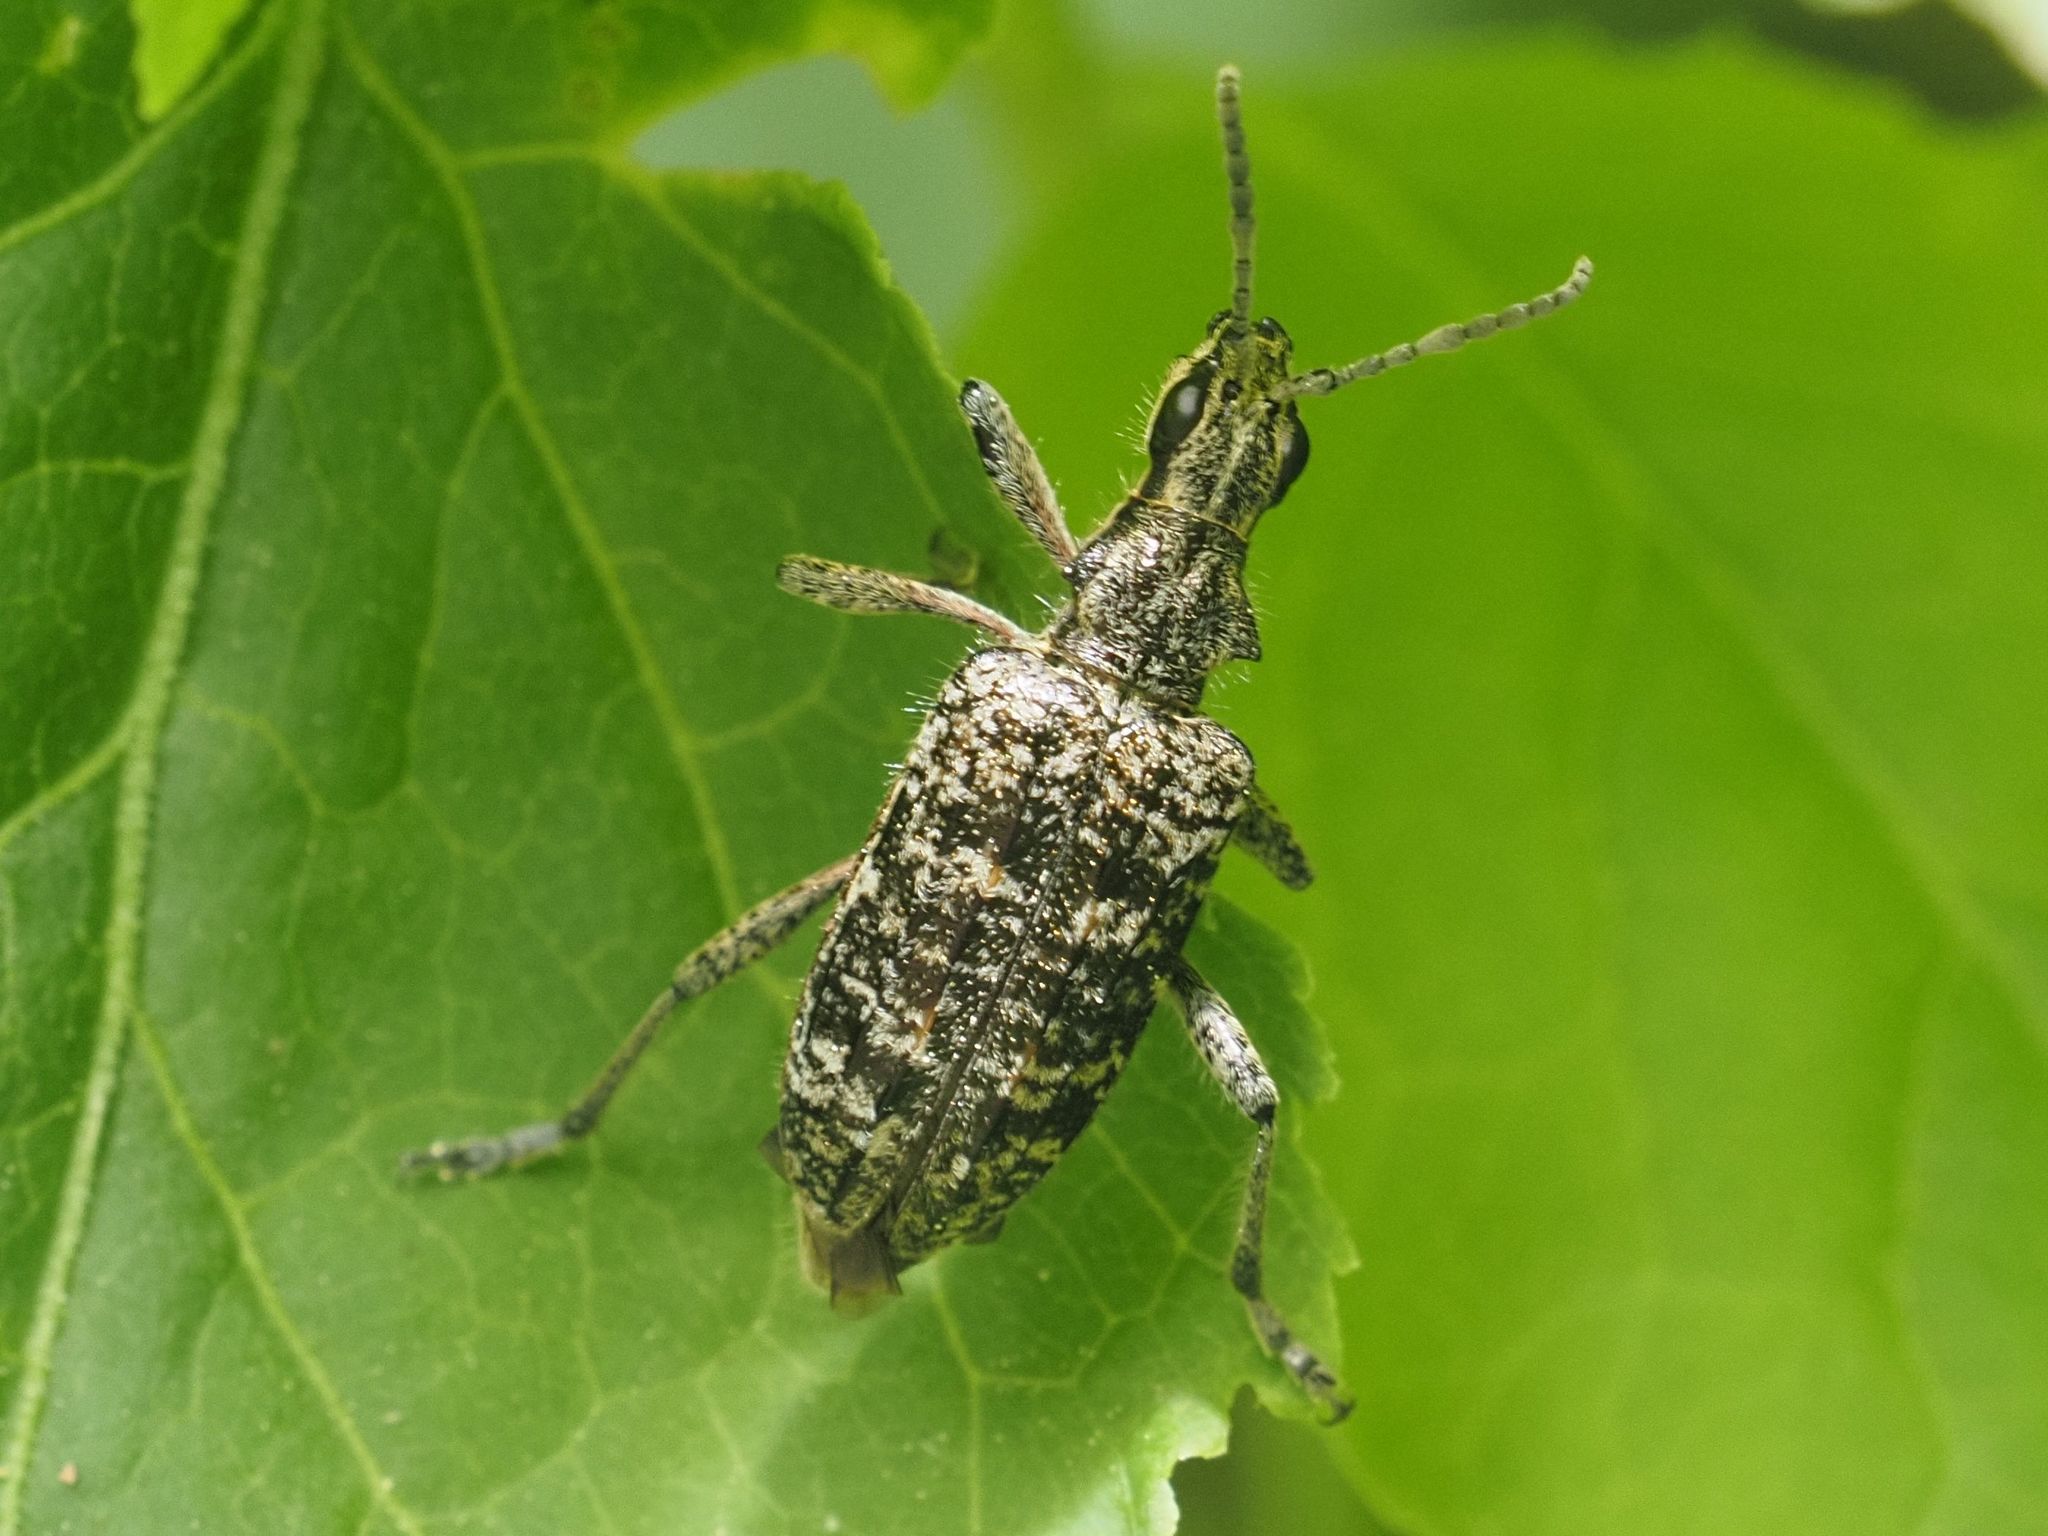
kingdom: Animalia
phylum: Arthropoda
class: Insecta
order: Coleoptera
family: Cerambycidae
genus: Rhagium
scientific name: Rhagium inquisitor
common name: Ribbed pine borer
